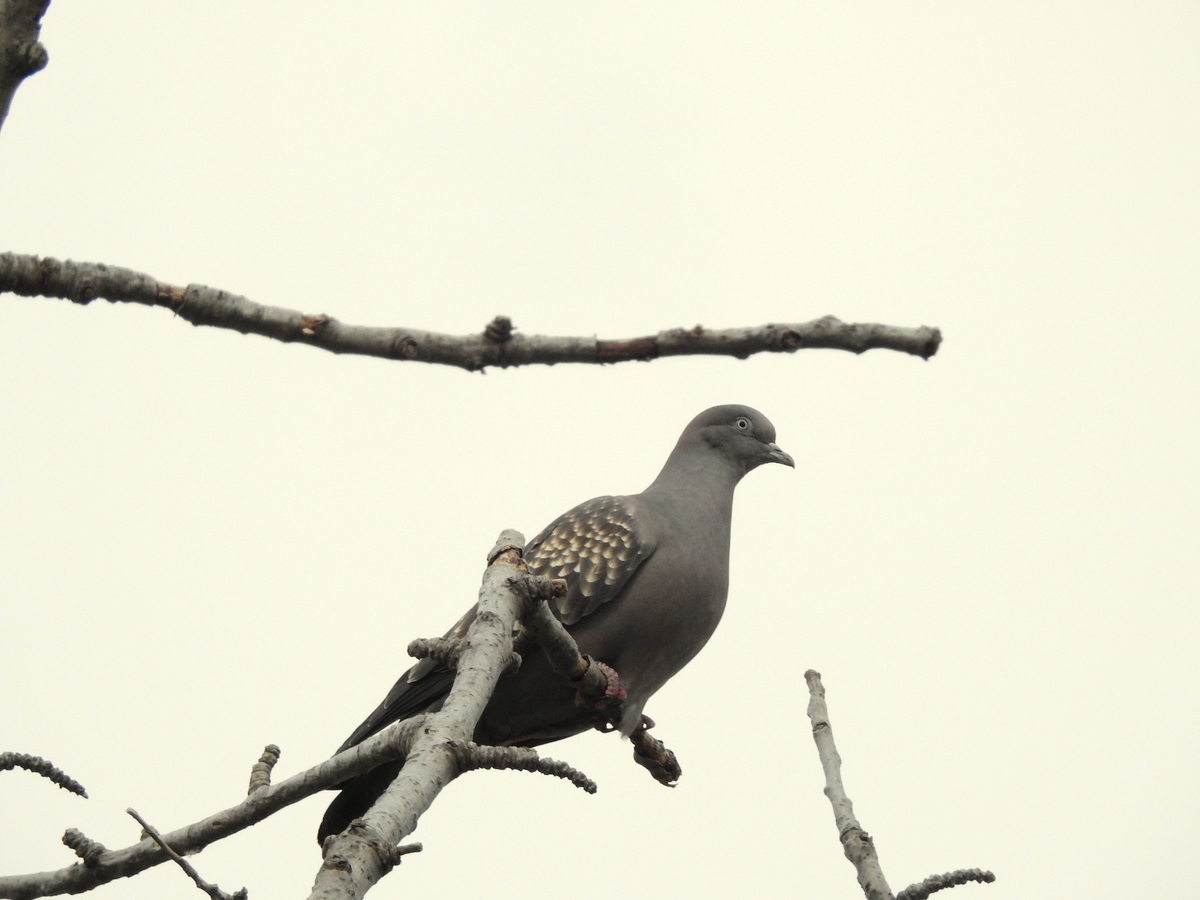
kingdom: Animalia
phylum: Chordata
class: Aves
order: Columbiformes
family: Columbidae
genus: Patagioenas
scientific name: Patagioenas maculosa
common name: Spot-winged pigeon
